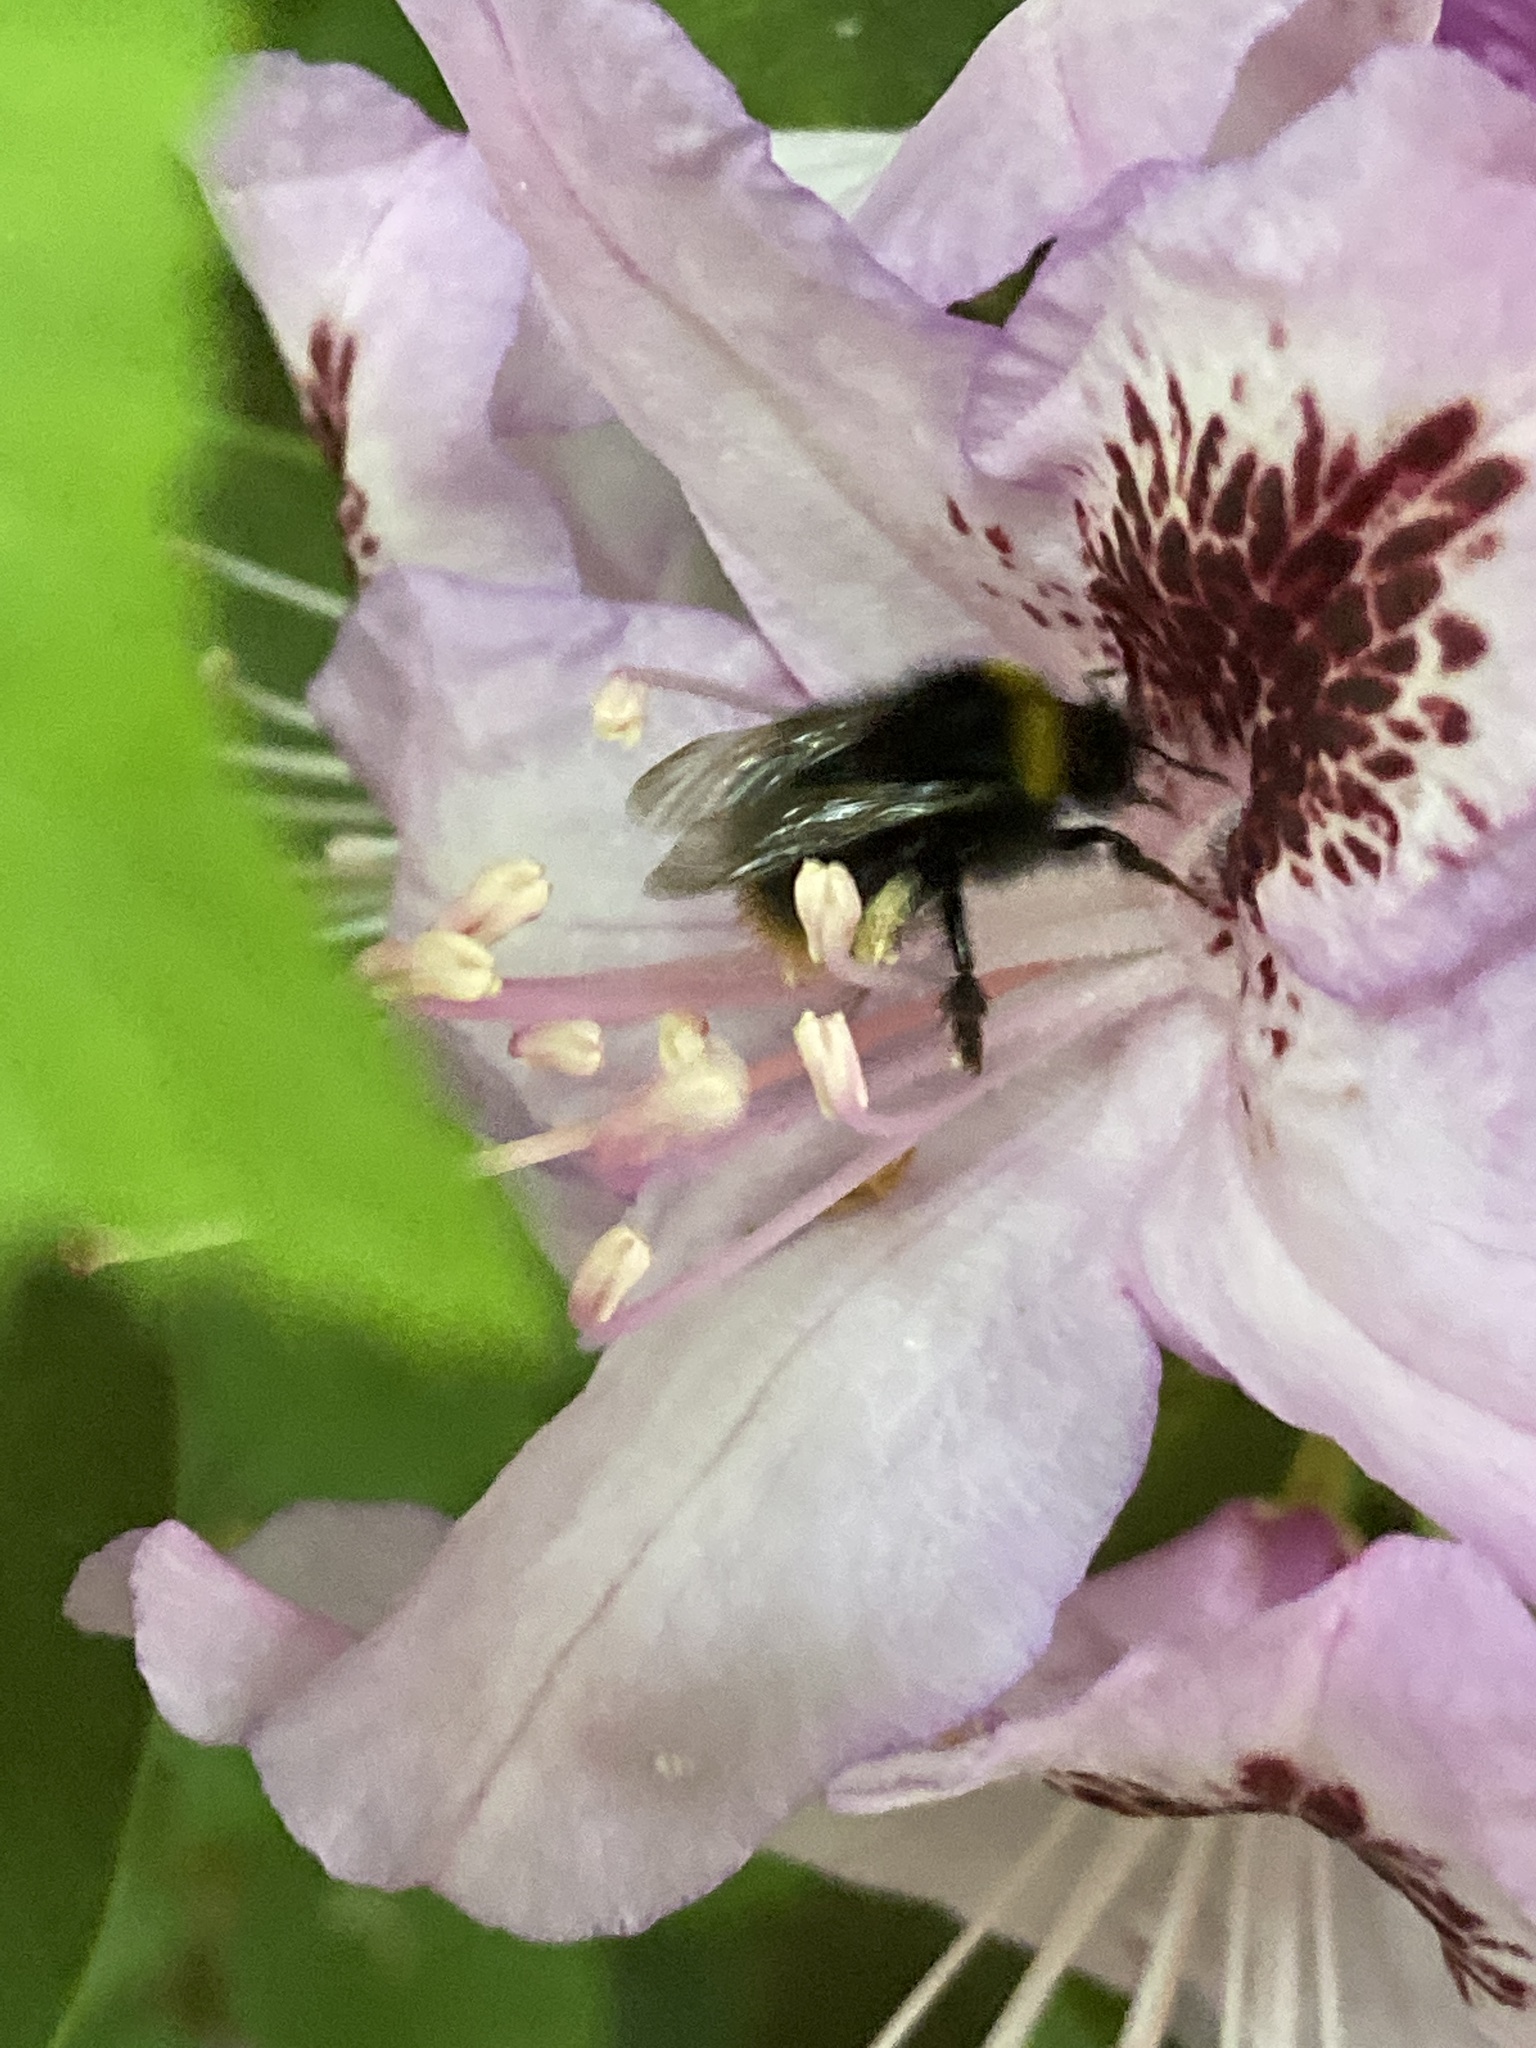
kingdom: Animalia
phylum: Arthropoda
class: Insecta
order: Hymenoptera
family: Apidae
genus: Bombus
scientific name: Bombus pratorum
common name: Early humble-bee
